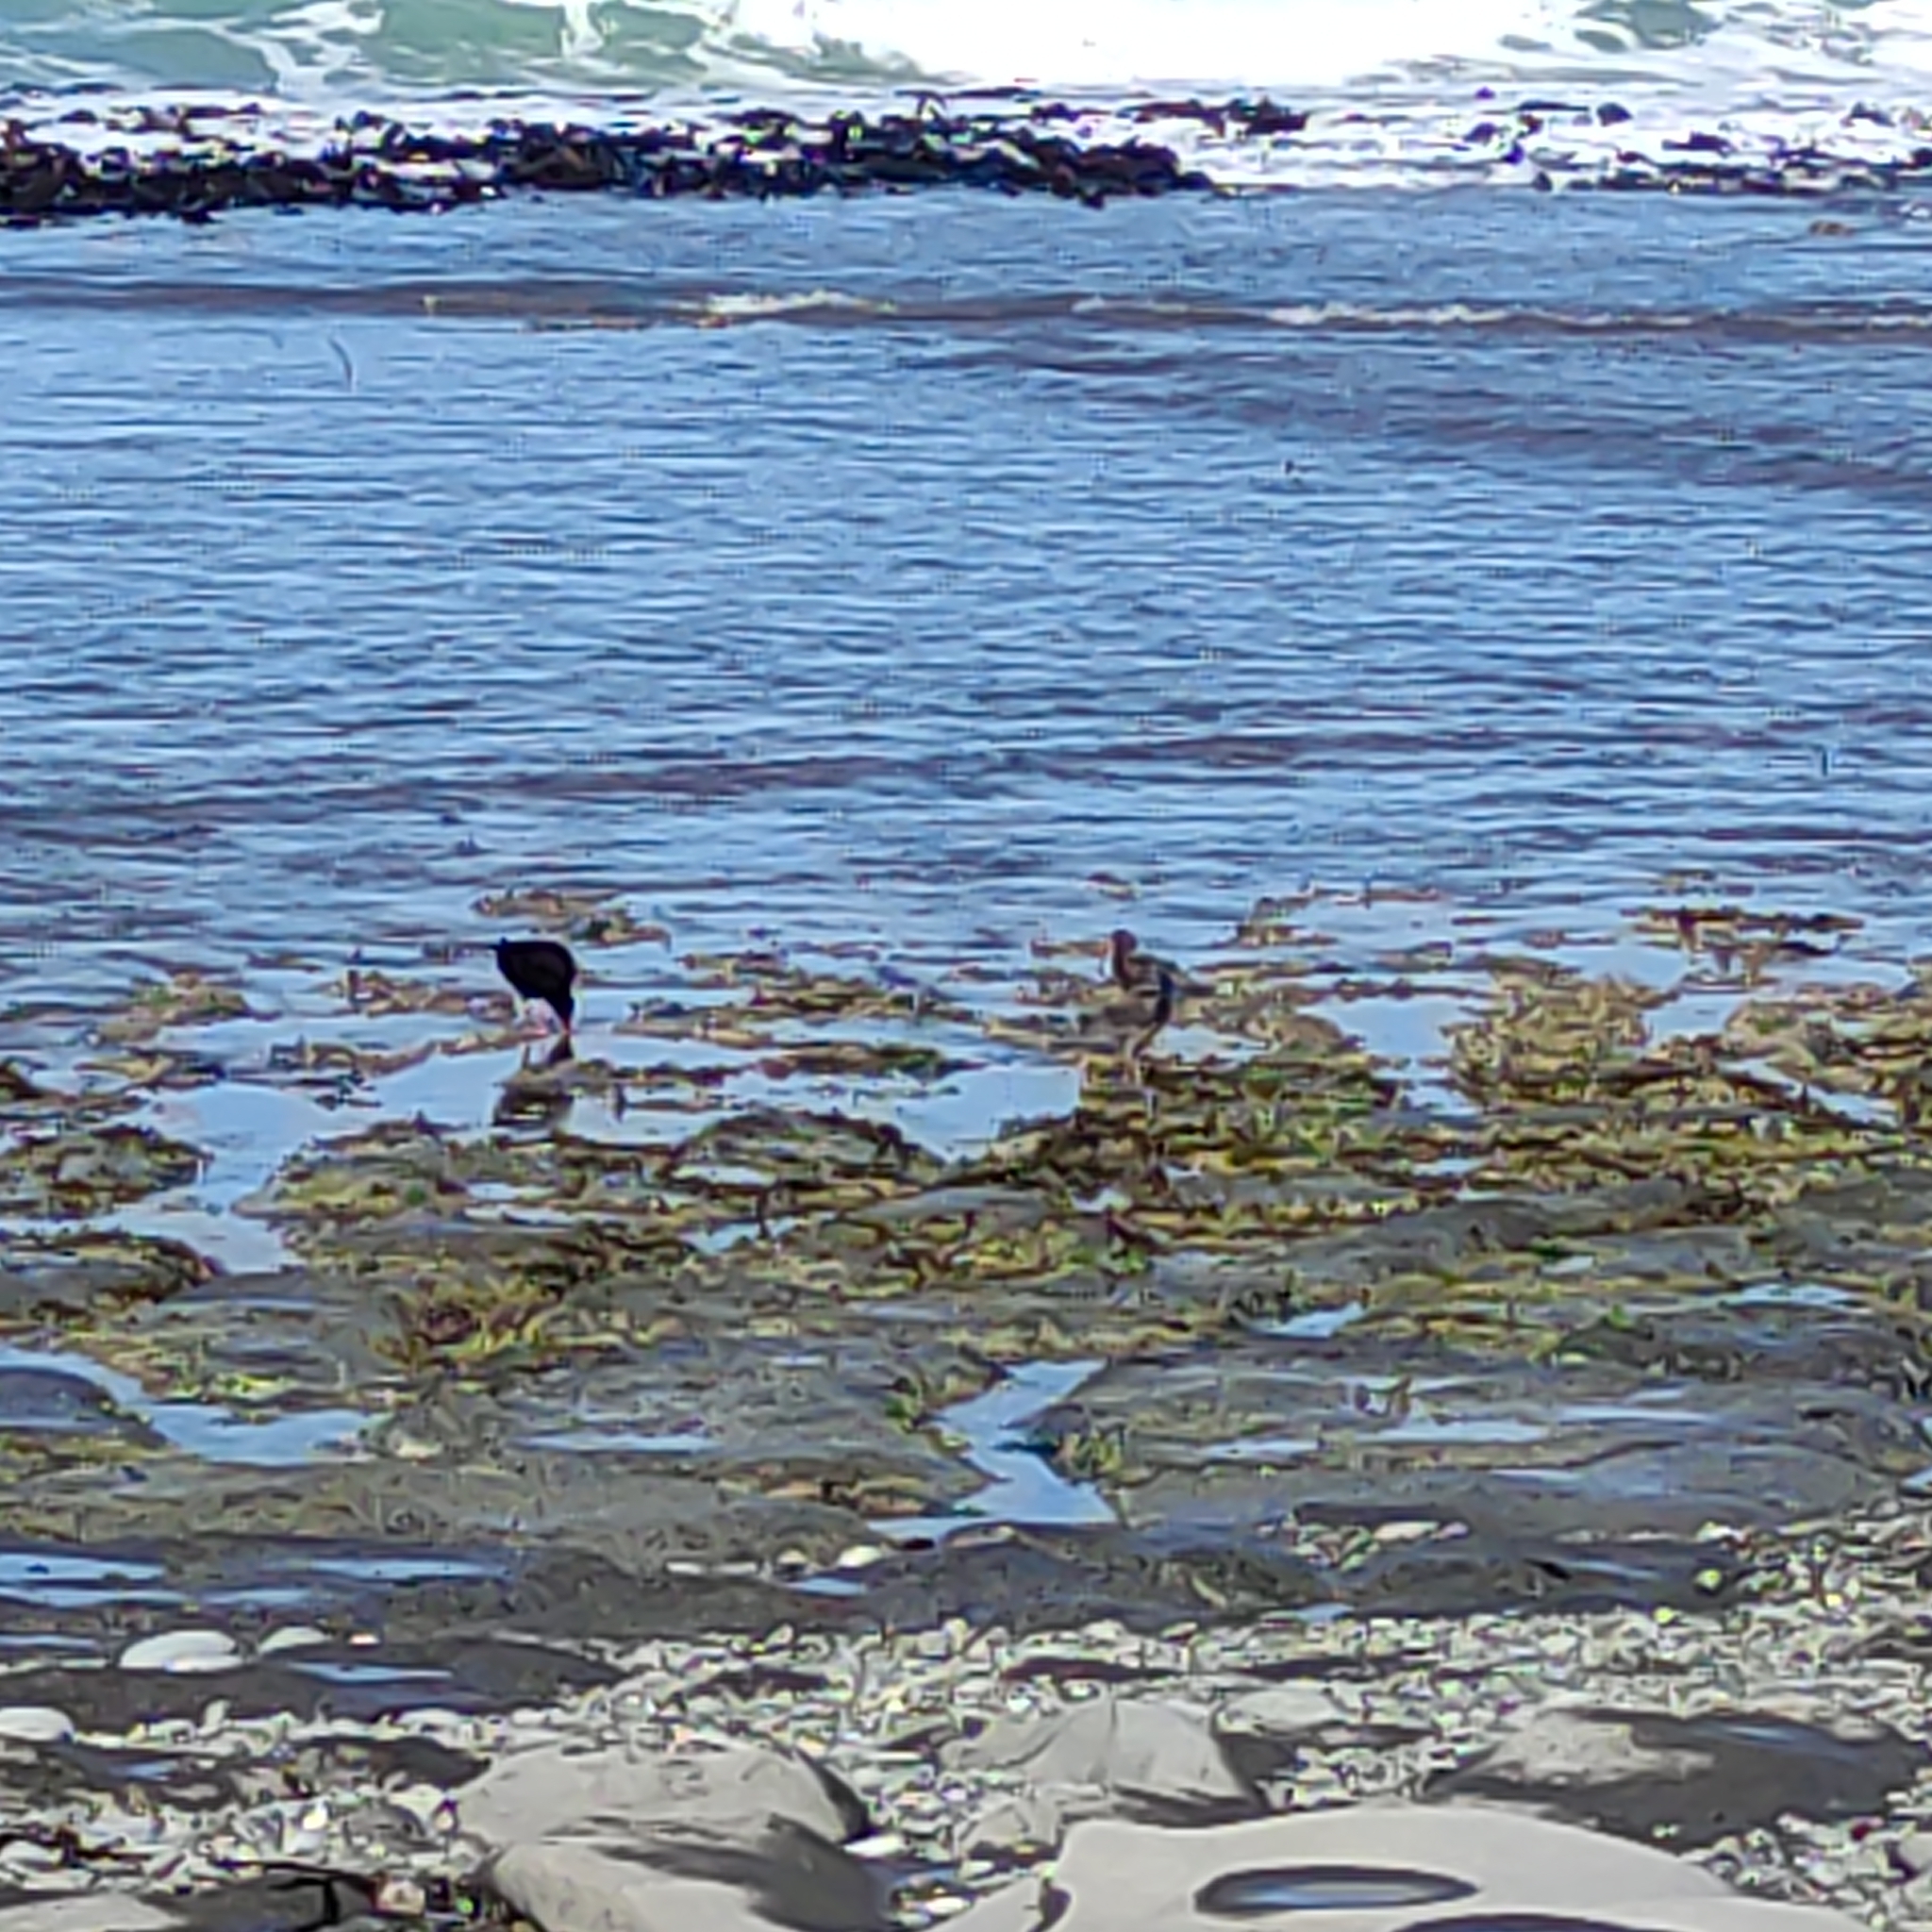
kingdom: Animalia
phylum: Chordata
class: Aves
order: Charadriiformes
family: Haematopodidae
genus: Haematopus
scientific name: Haematopus unicolor
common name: Variable oystercatcher
